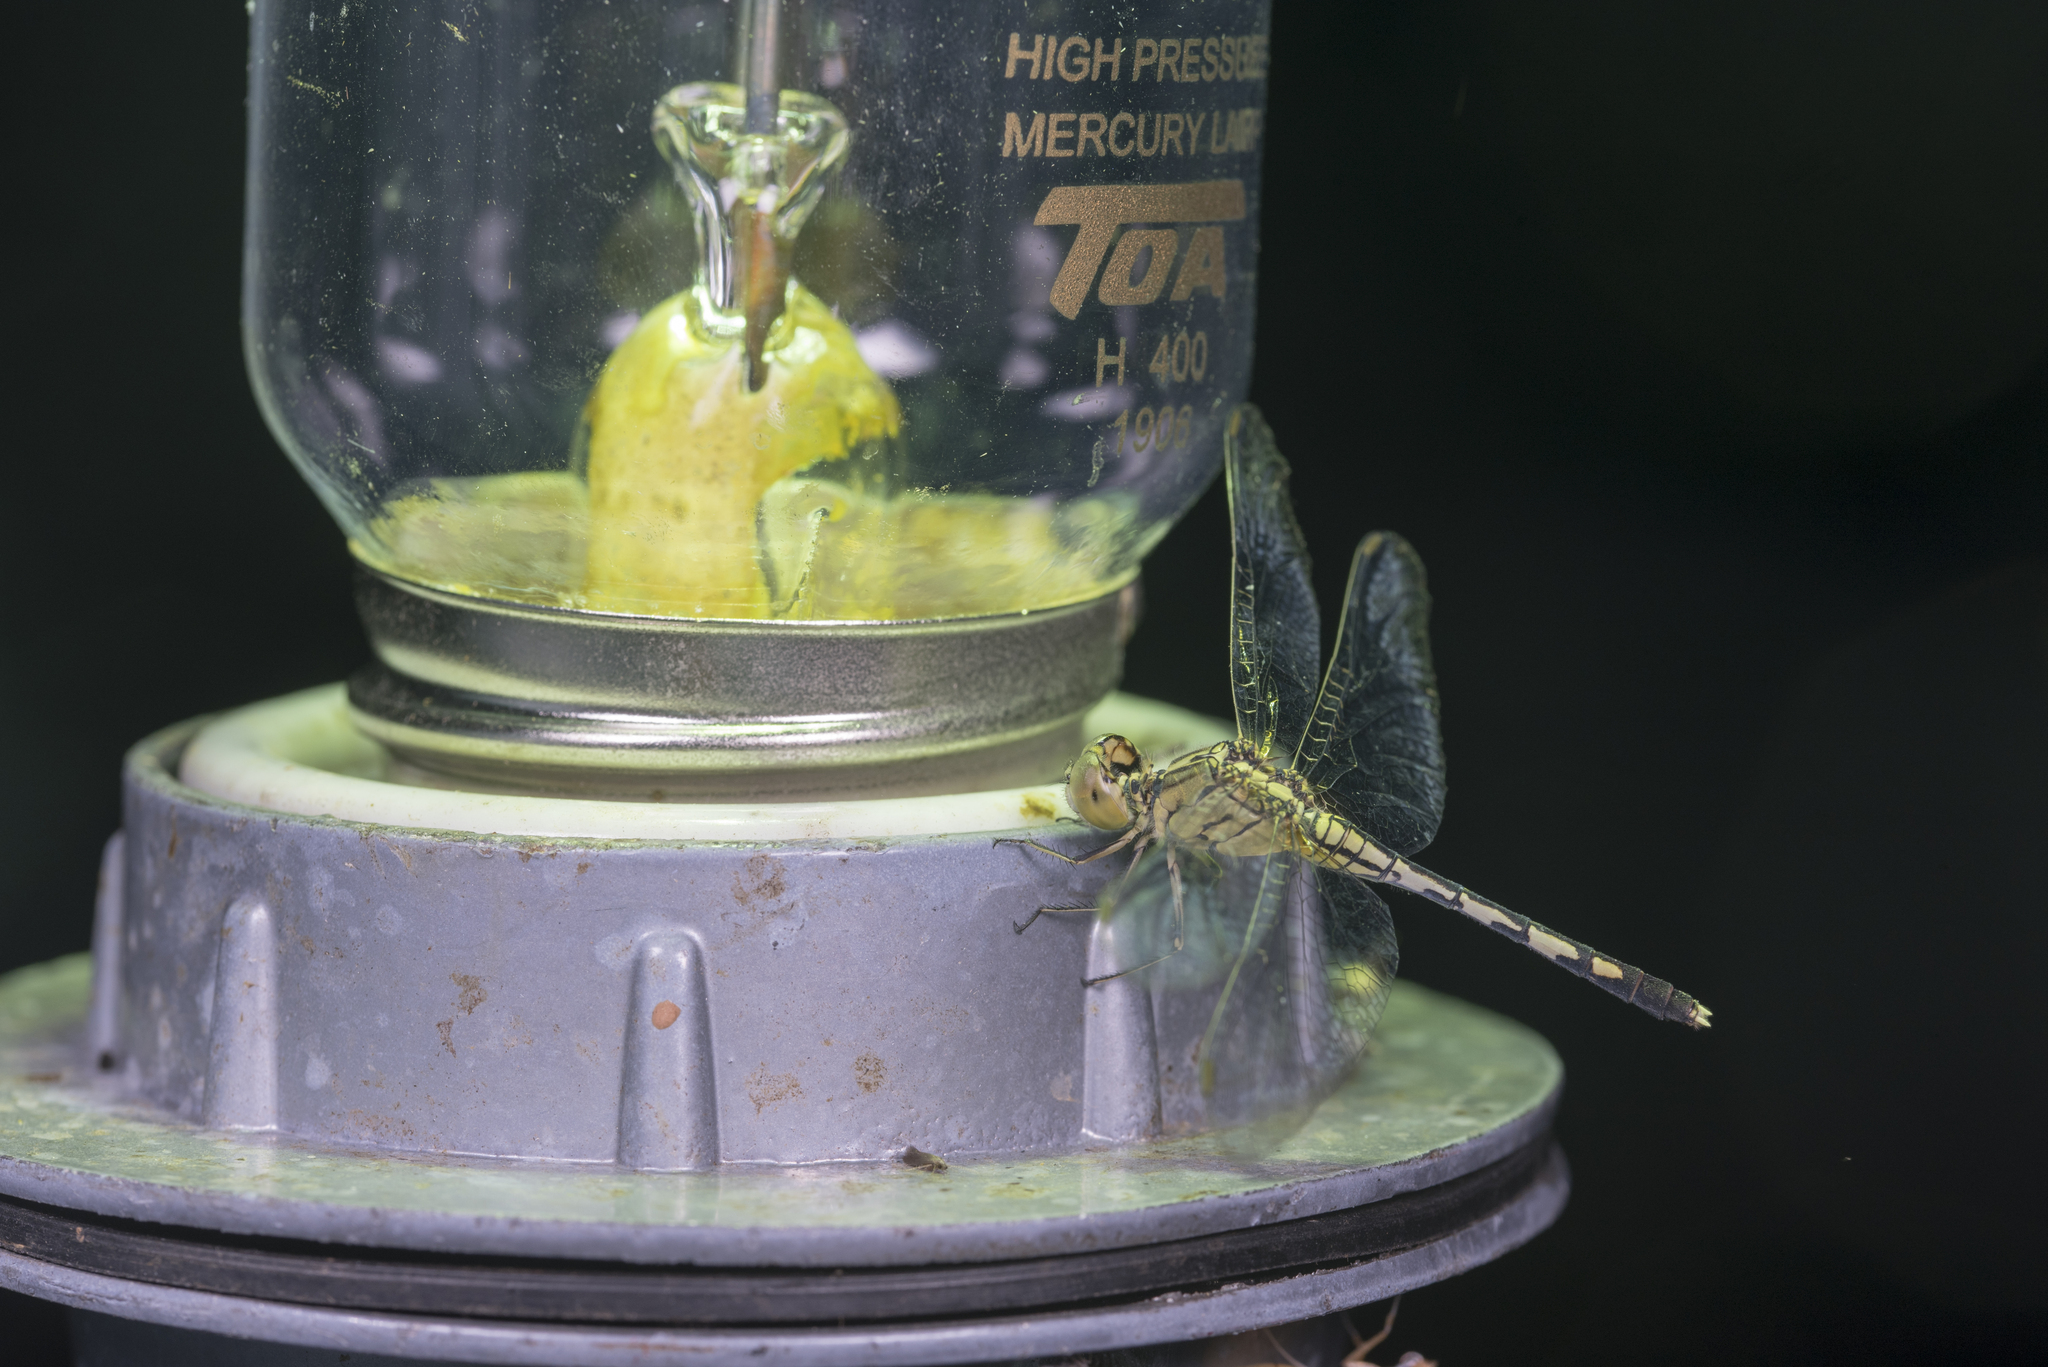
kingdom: Animalia
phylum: Arthropoda
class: Insecta
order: Odonata
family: Libellulidae
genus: Diplacodes
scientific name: Diplacodes trivialis
